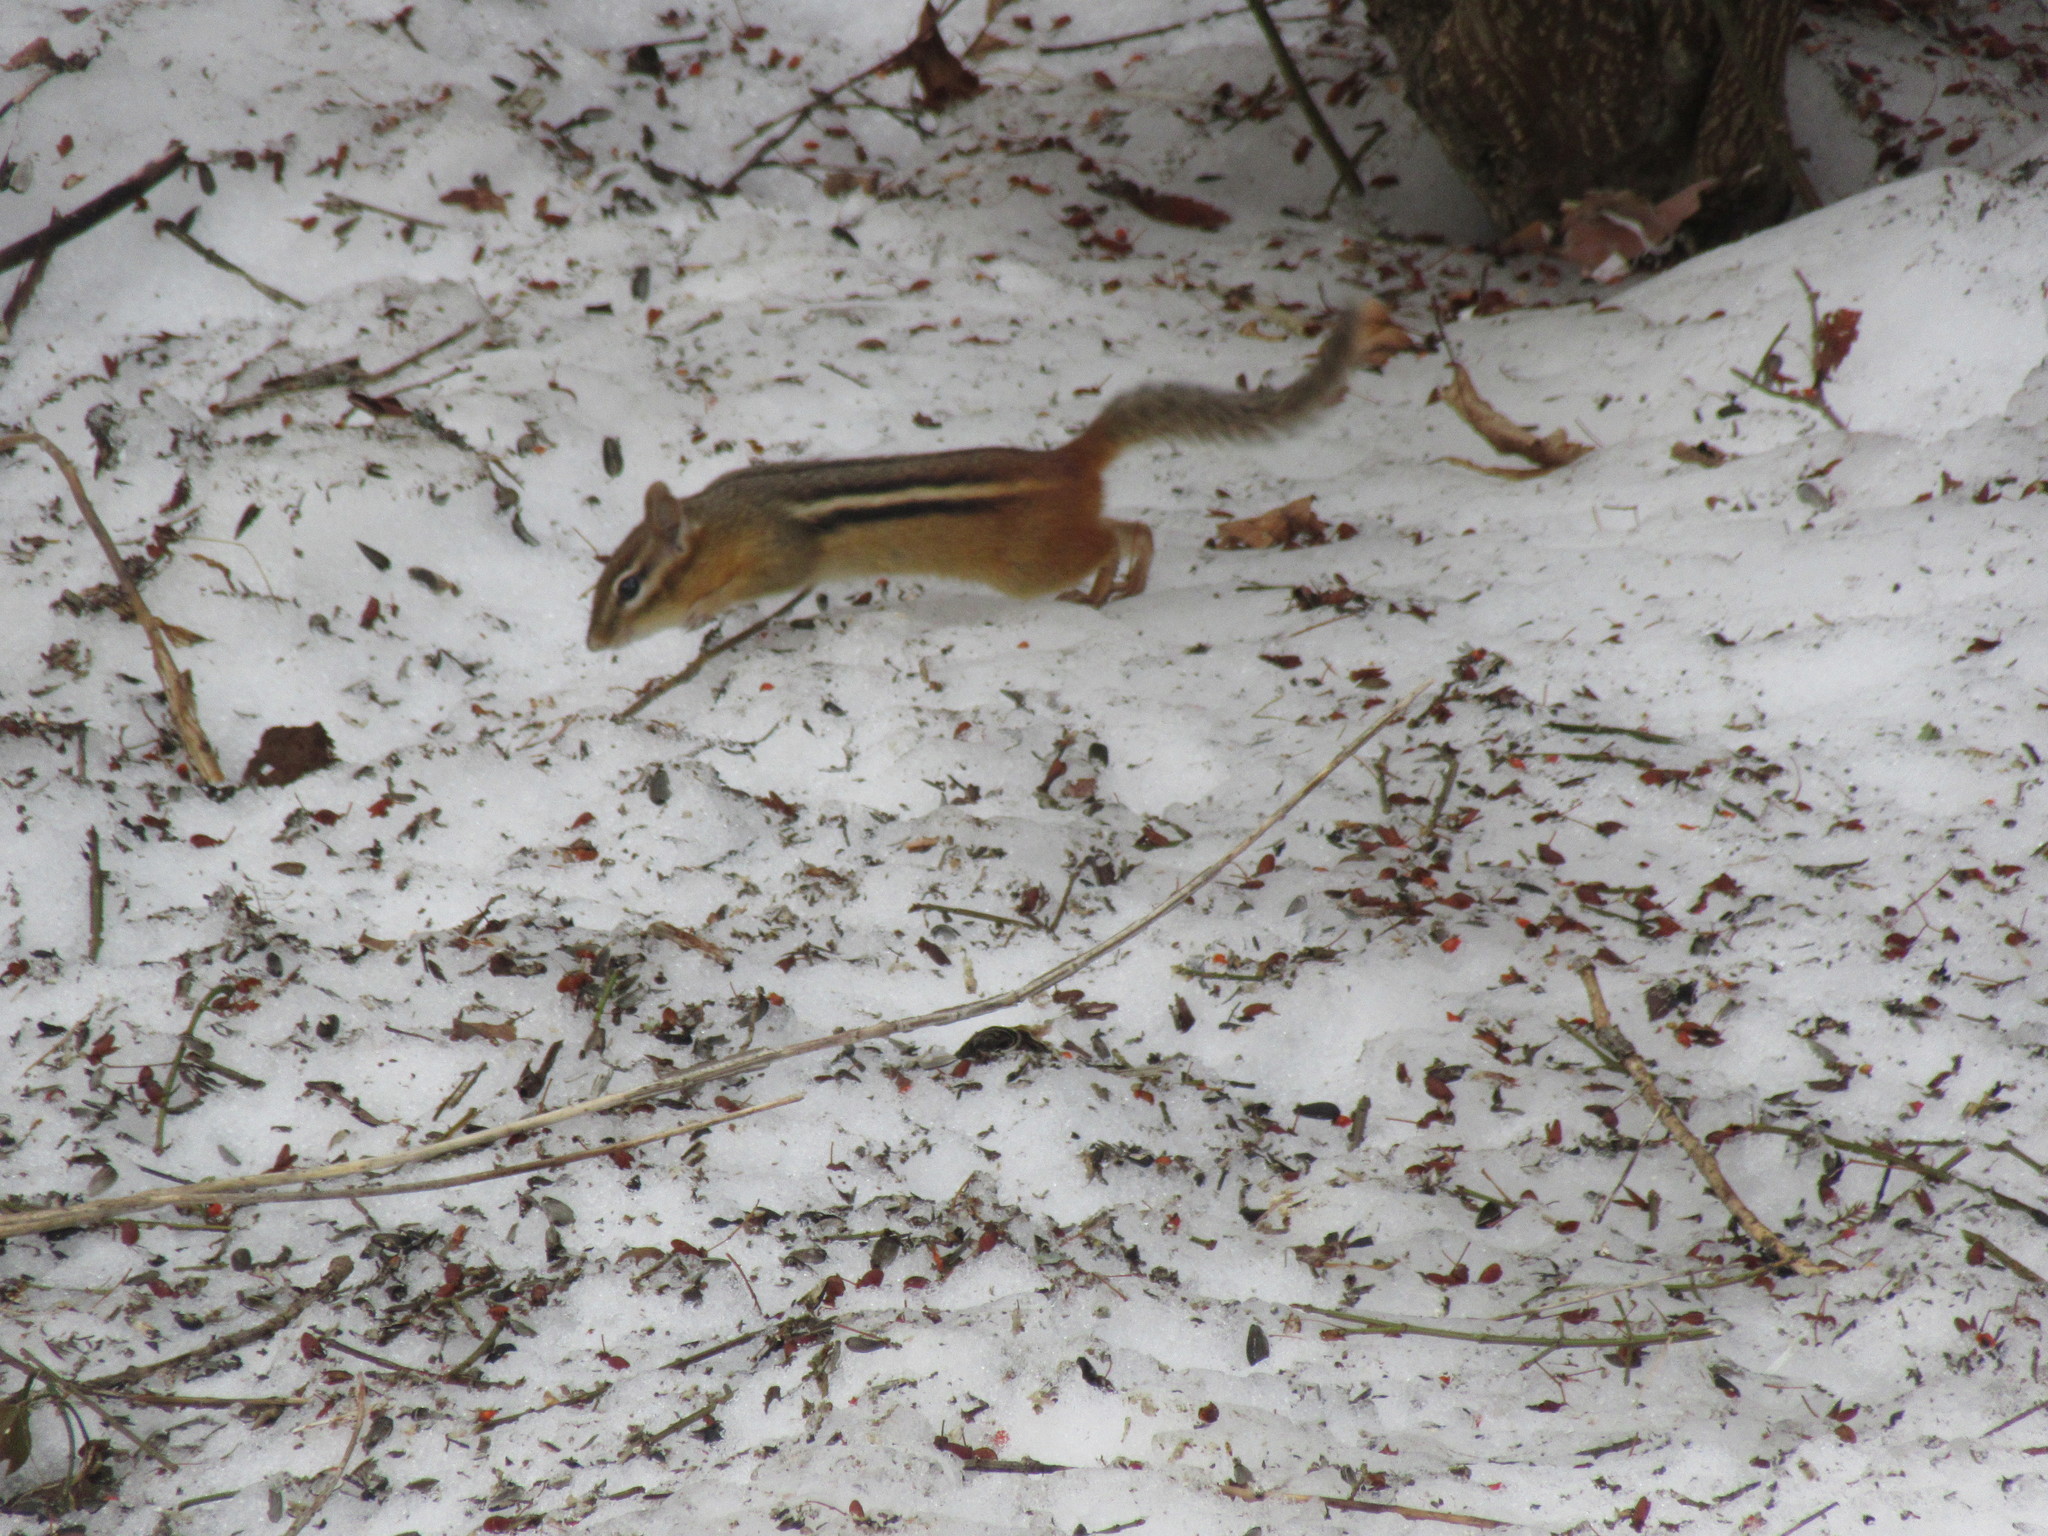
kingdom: Animalia
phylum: Chordata
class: Mammalia
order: Rodentia
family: Sciuridae
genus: Tamias
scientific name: Tamias striatus
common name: Eastern chipmunk
